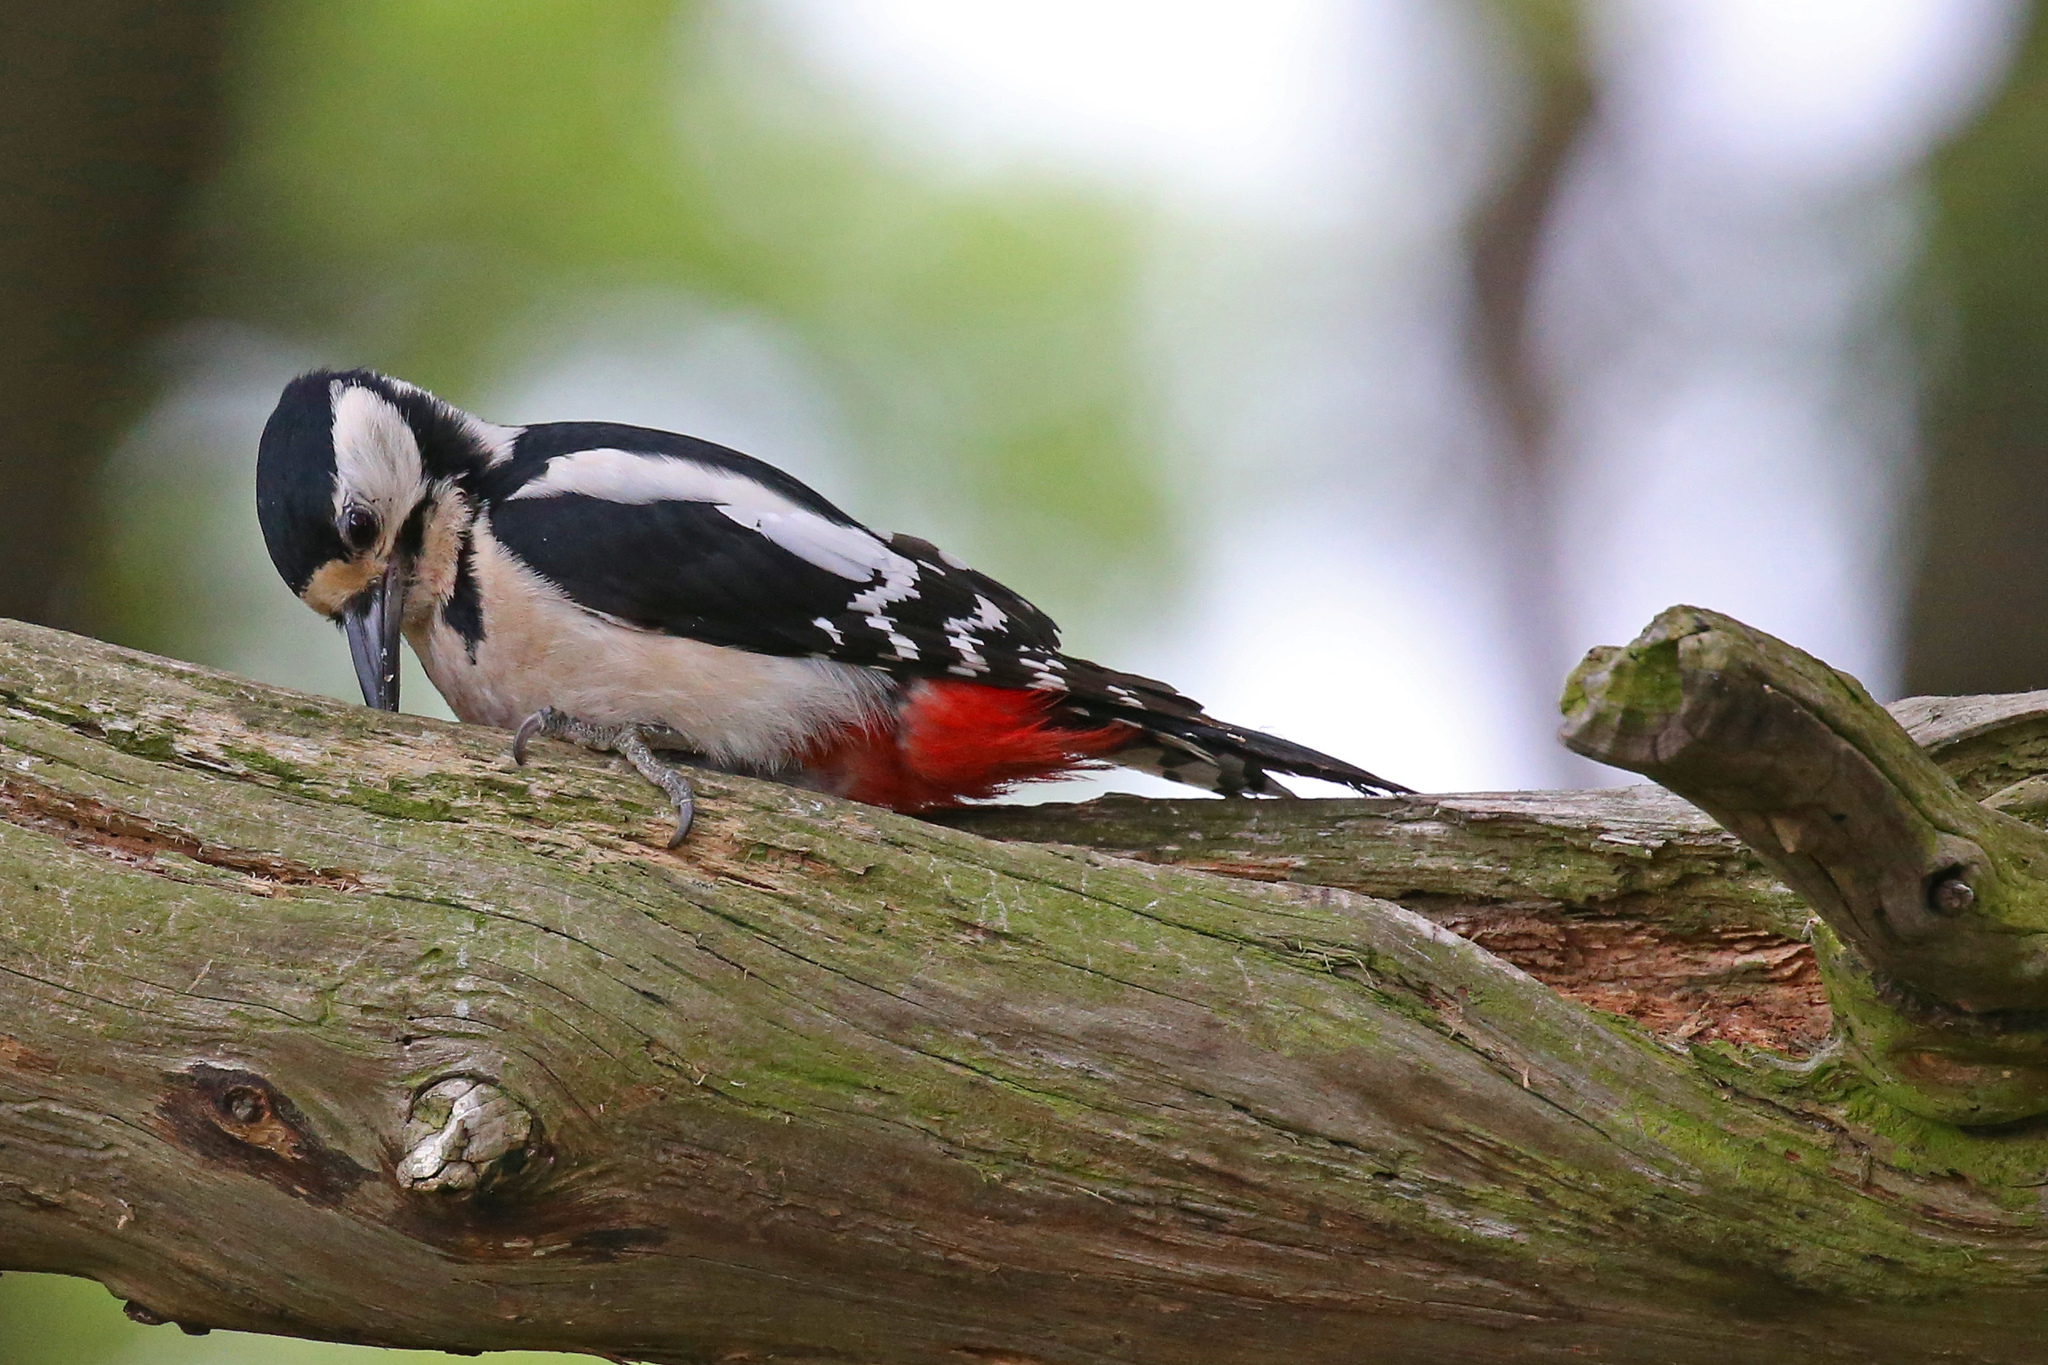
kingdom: Animalia
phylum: Chordata
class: Aves
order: Piciformes
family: Picidae
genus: Dendrocopos
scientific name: Dendrocopos major
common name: Great spotted woodpecker
